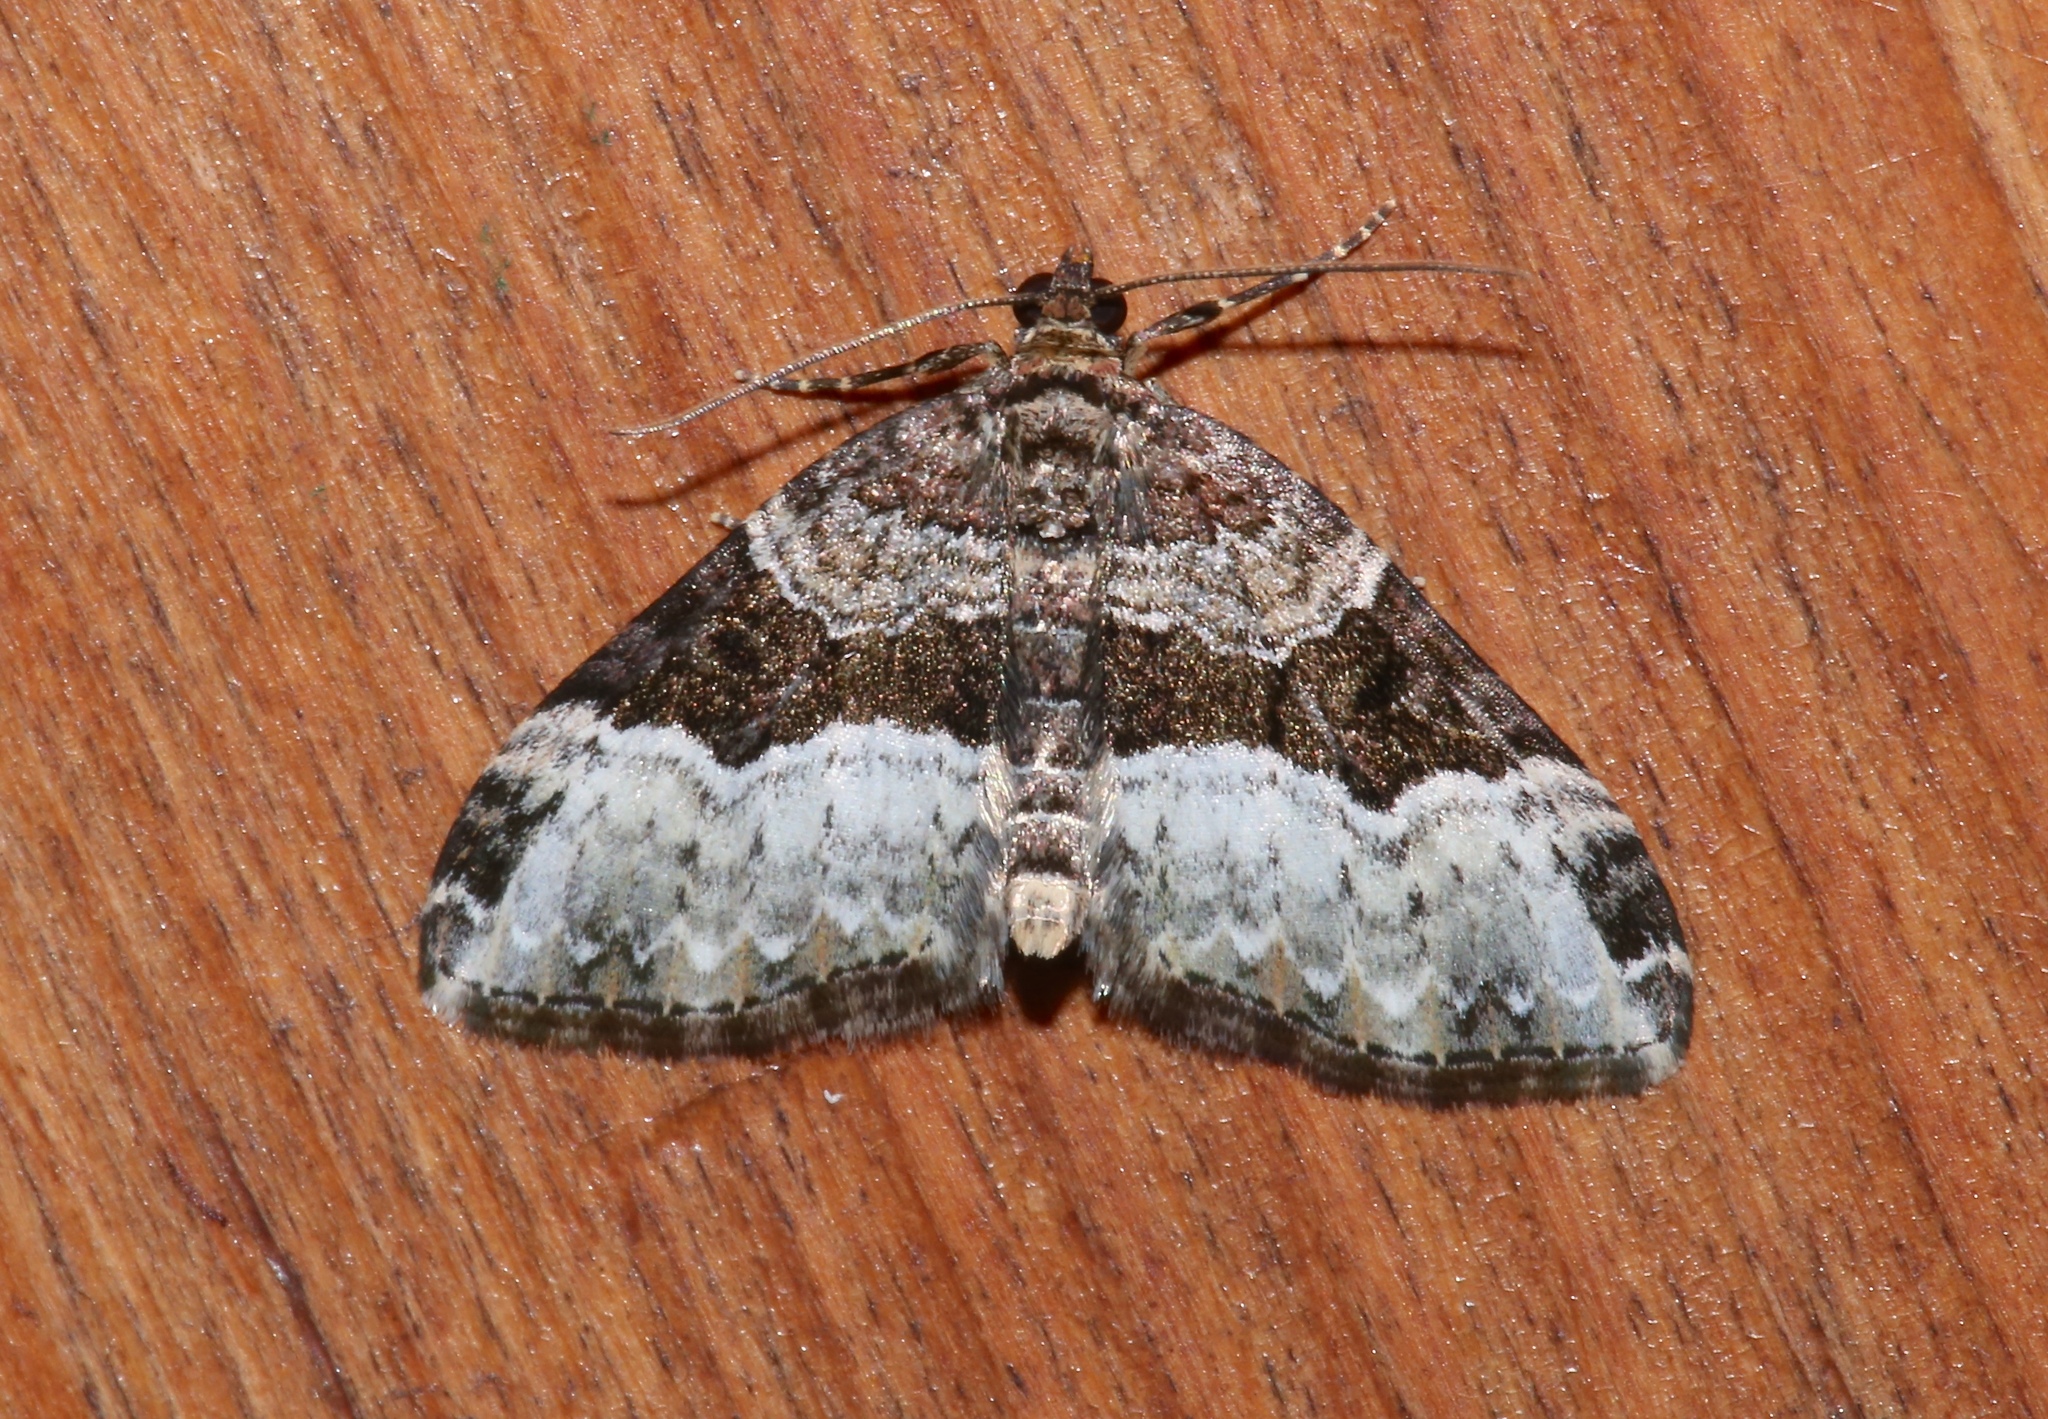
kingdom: Animalia
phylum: Arthropoda
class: Insecta
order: Lepidoptera
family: Geometridae
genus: Euphyia
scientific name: Euphyia intermediata
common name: Sharp-angled carpet
